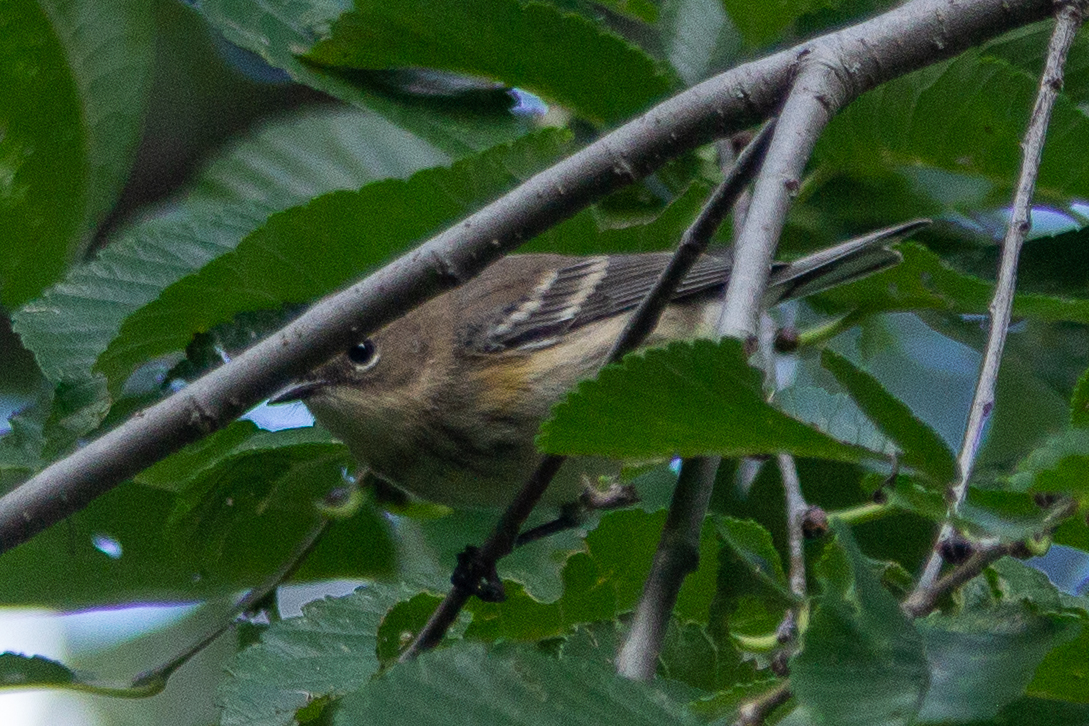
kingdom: Animalia
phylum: Chordata
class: Aves
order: Passeriformes
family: Parulidae
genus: Setophaga
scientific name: Setophaga coronata
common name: Myrtle warbler
